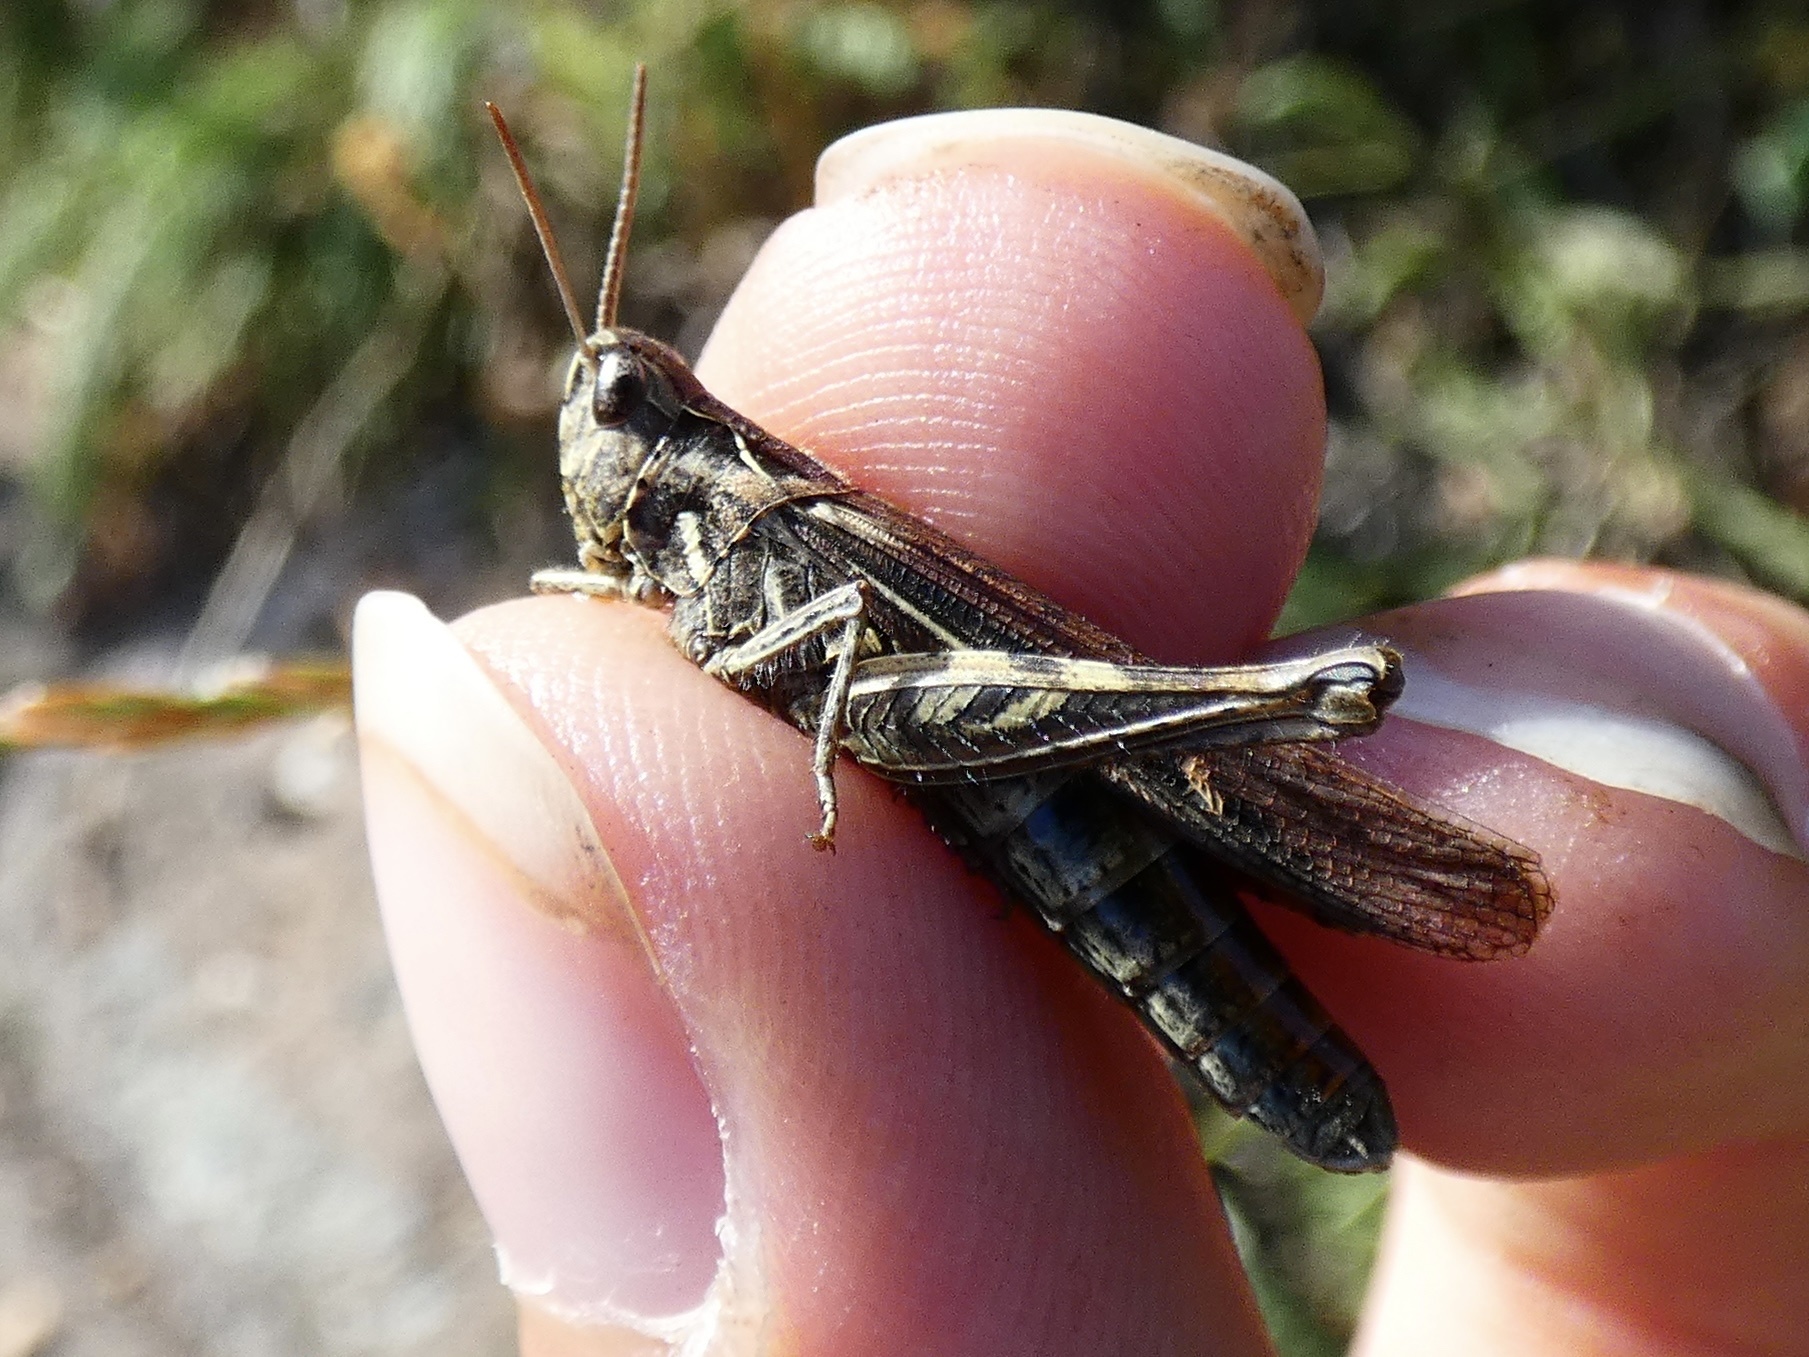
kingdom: Animalia
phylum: Arthropoda
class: Insecta
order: Orthoptera
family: Acrididae
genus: Chorthippus
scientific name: Chorthippus brunneus
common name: Field grasshopper
